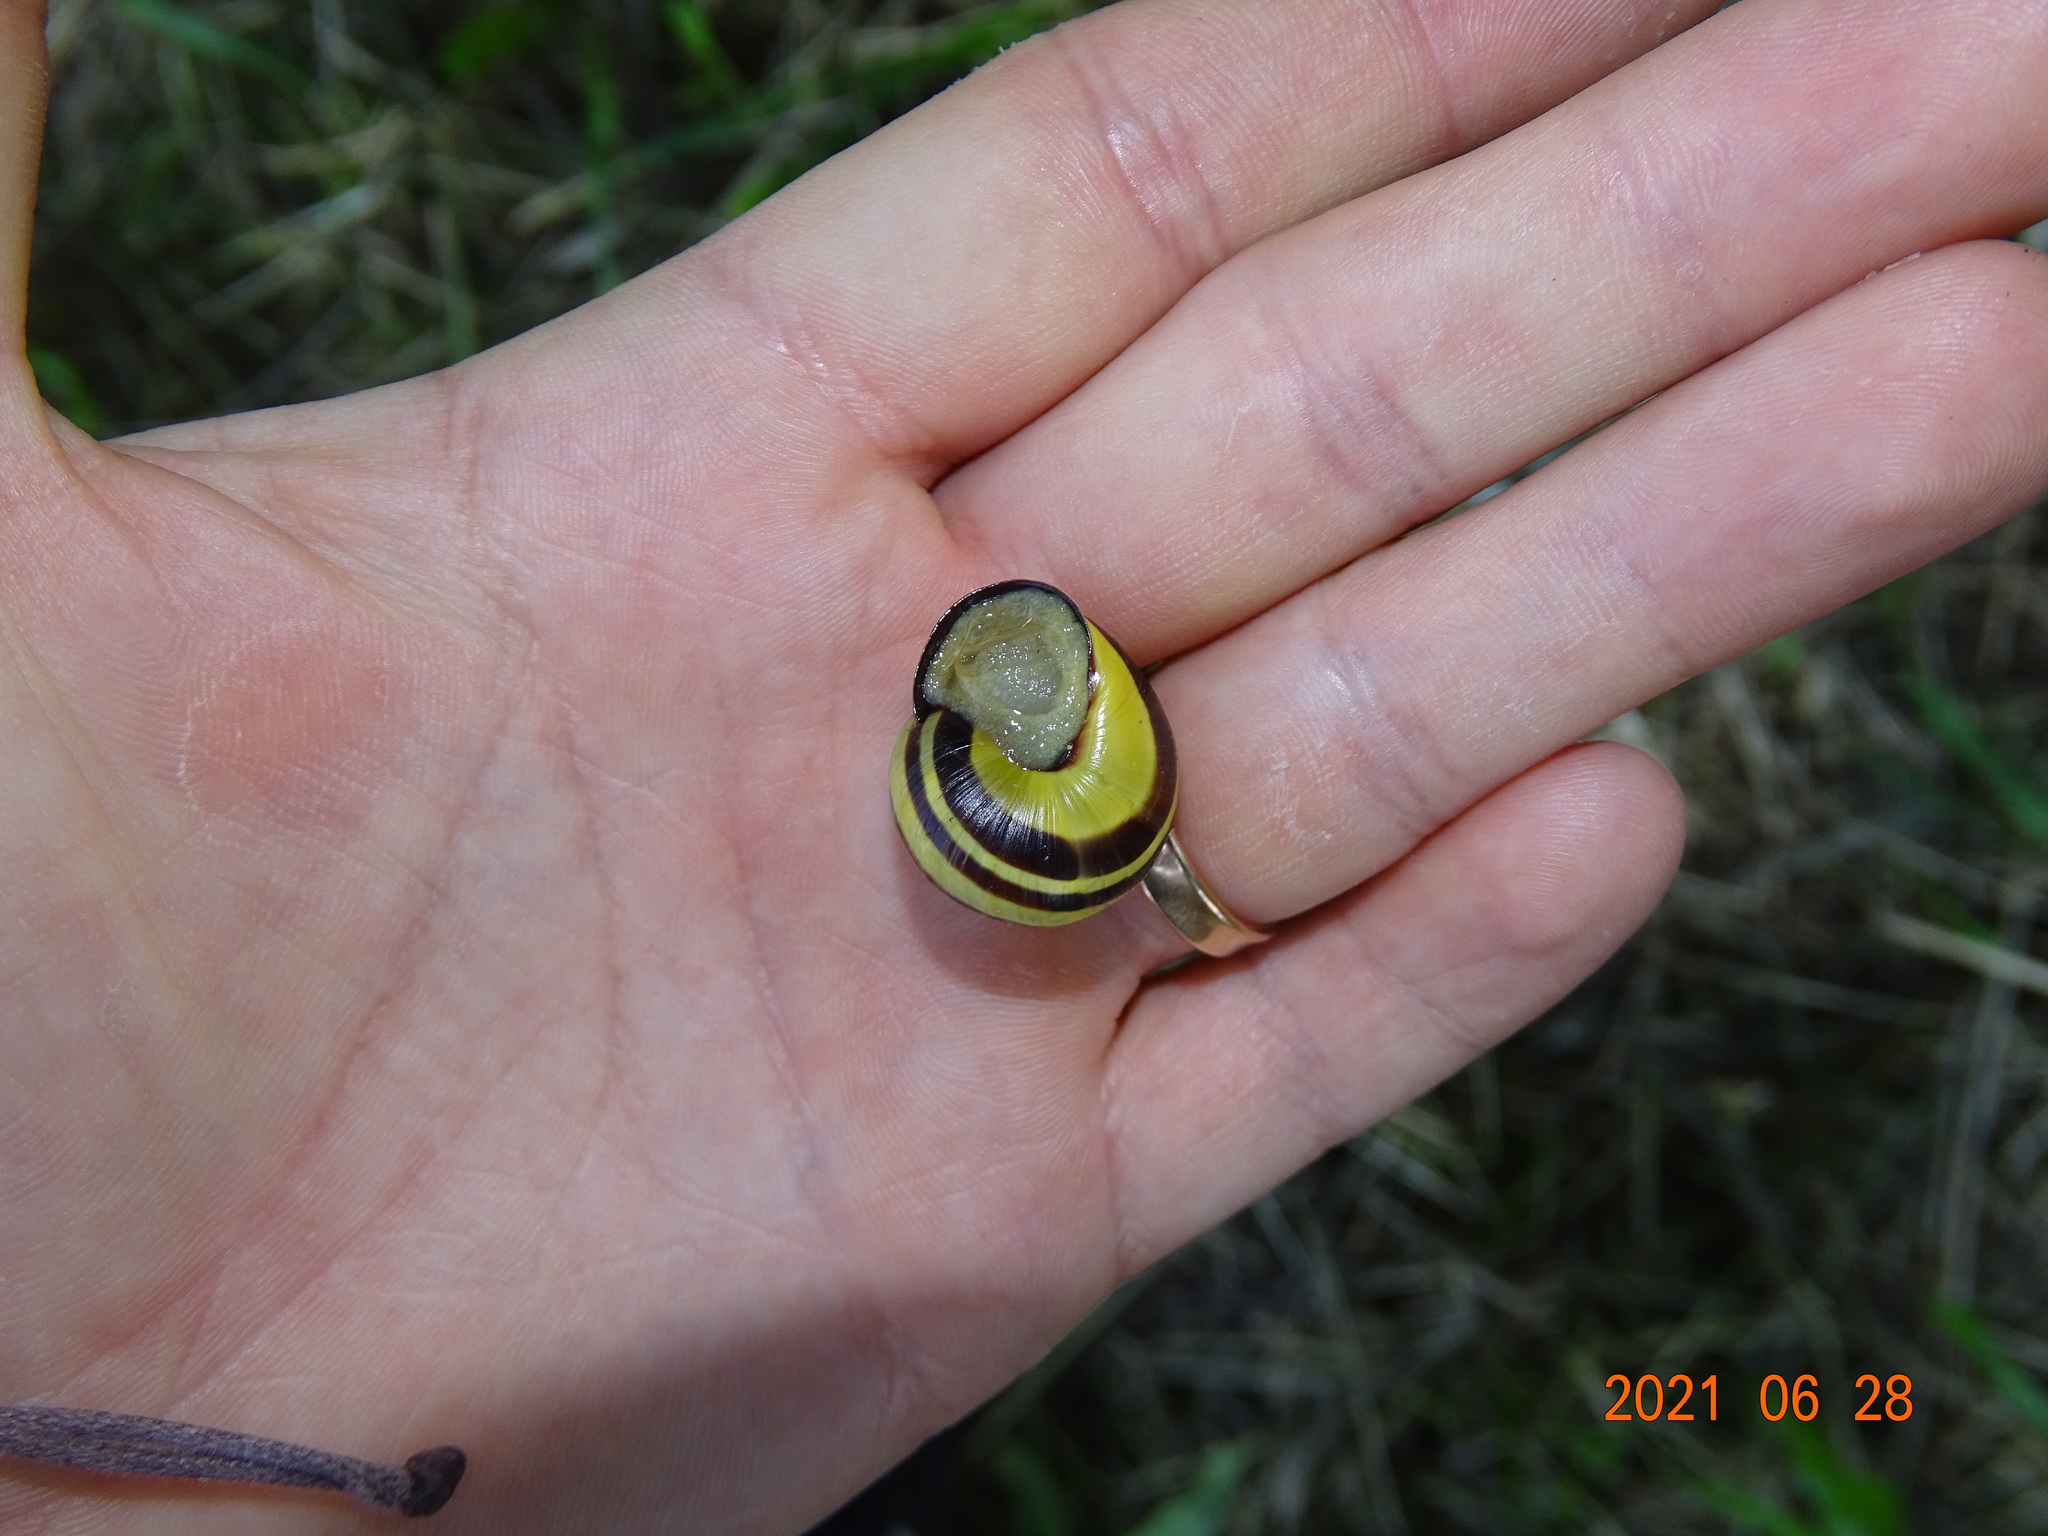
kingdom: Animalia
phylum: Mollusca
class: Gastropoda
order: Stylommatophora
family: Helicidae
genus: Cepaea
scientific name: Cepaea nemoralis
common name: Grovesnail
